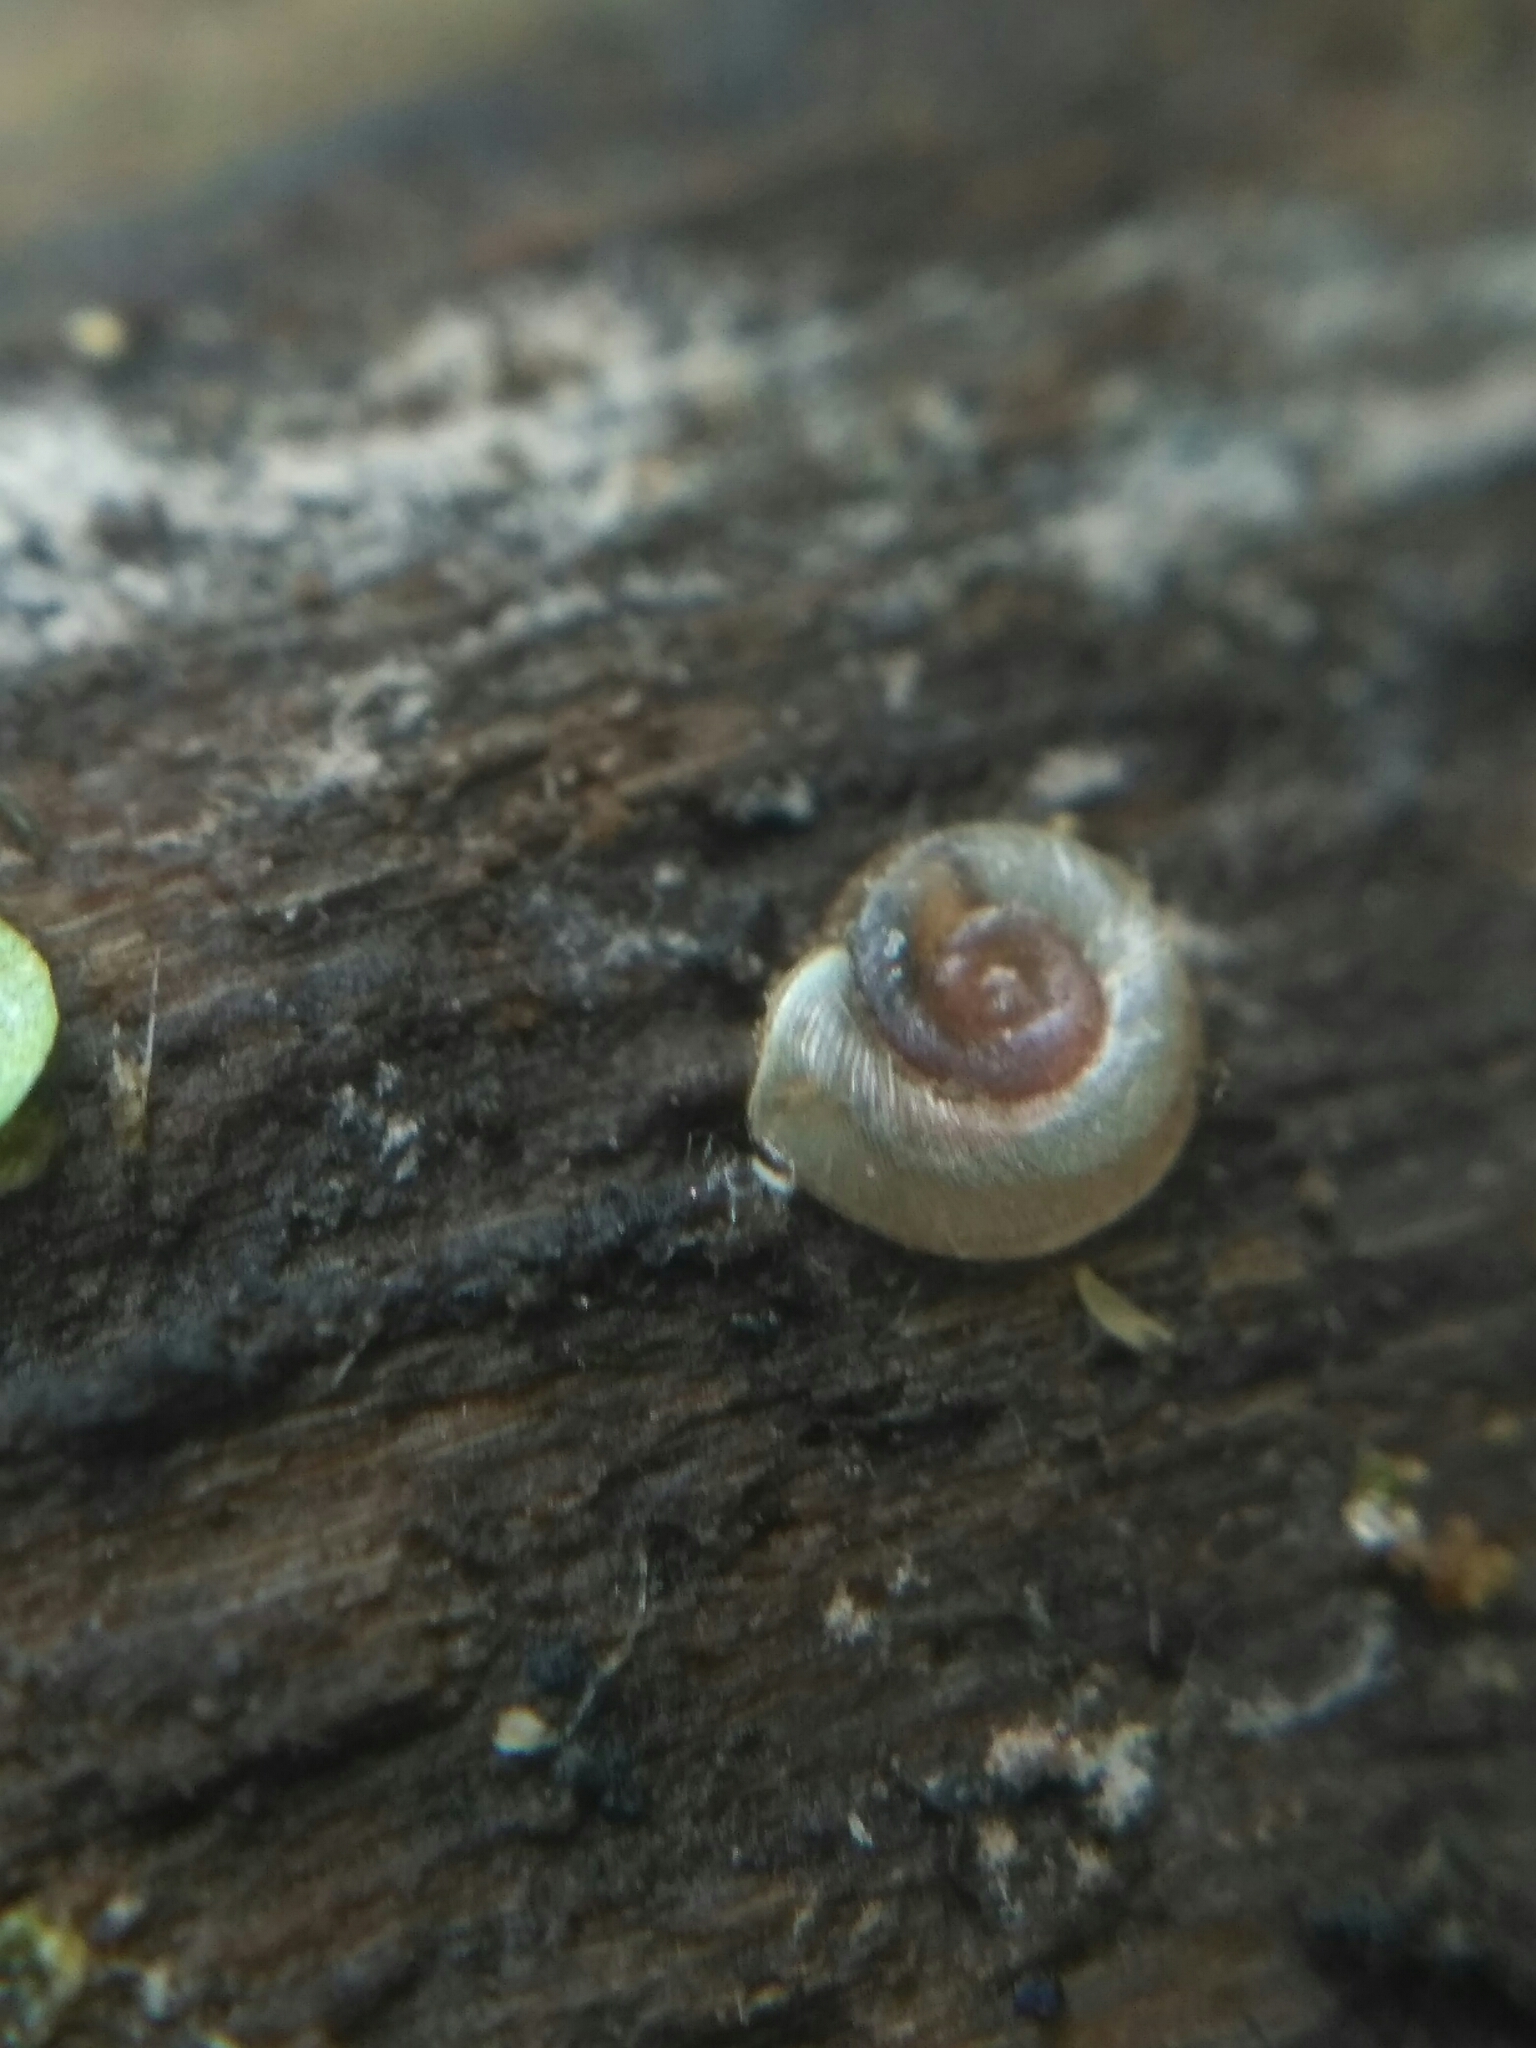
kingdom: Animalia
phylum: Mollusca
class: Gastropoda
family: Planorbidae
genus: Planorbis
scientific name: Planorbis planorbis
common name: Margined ramshorn
